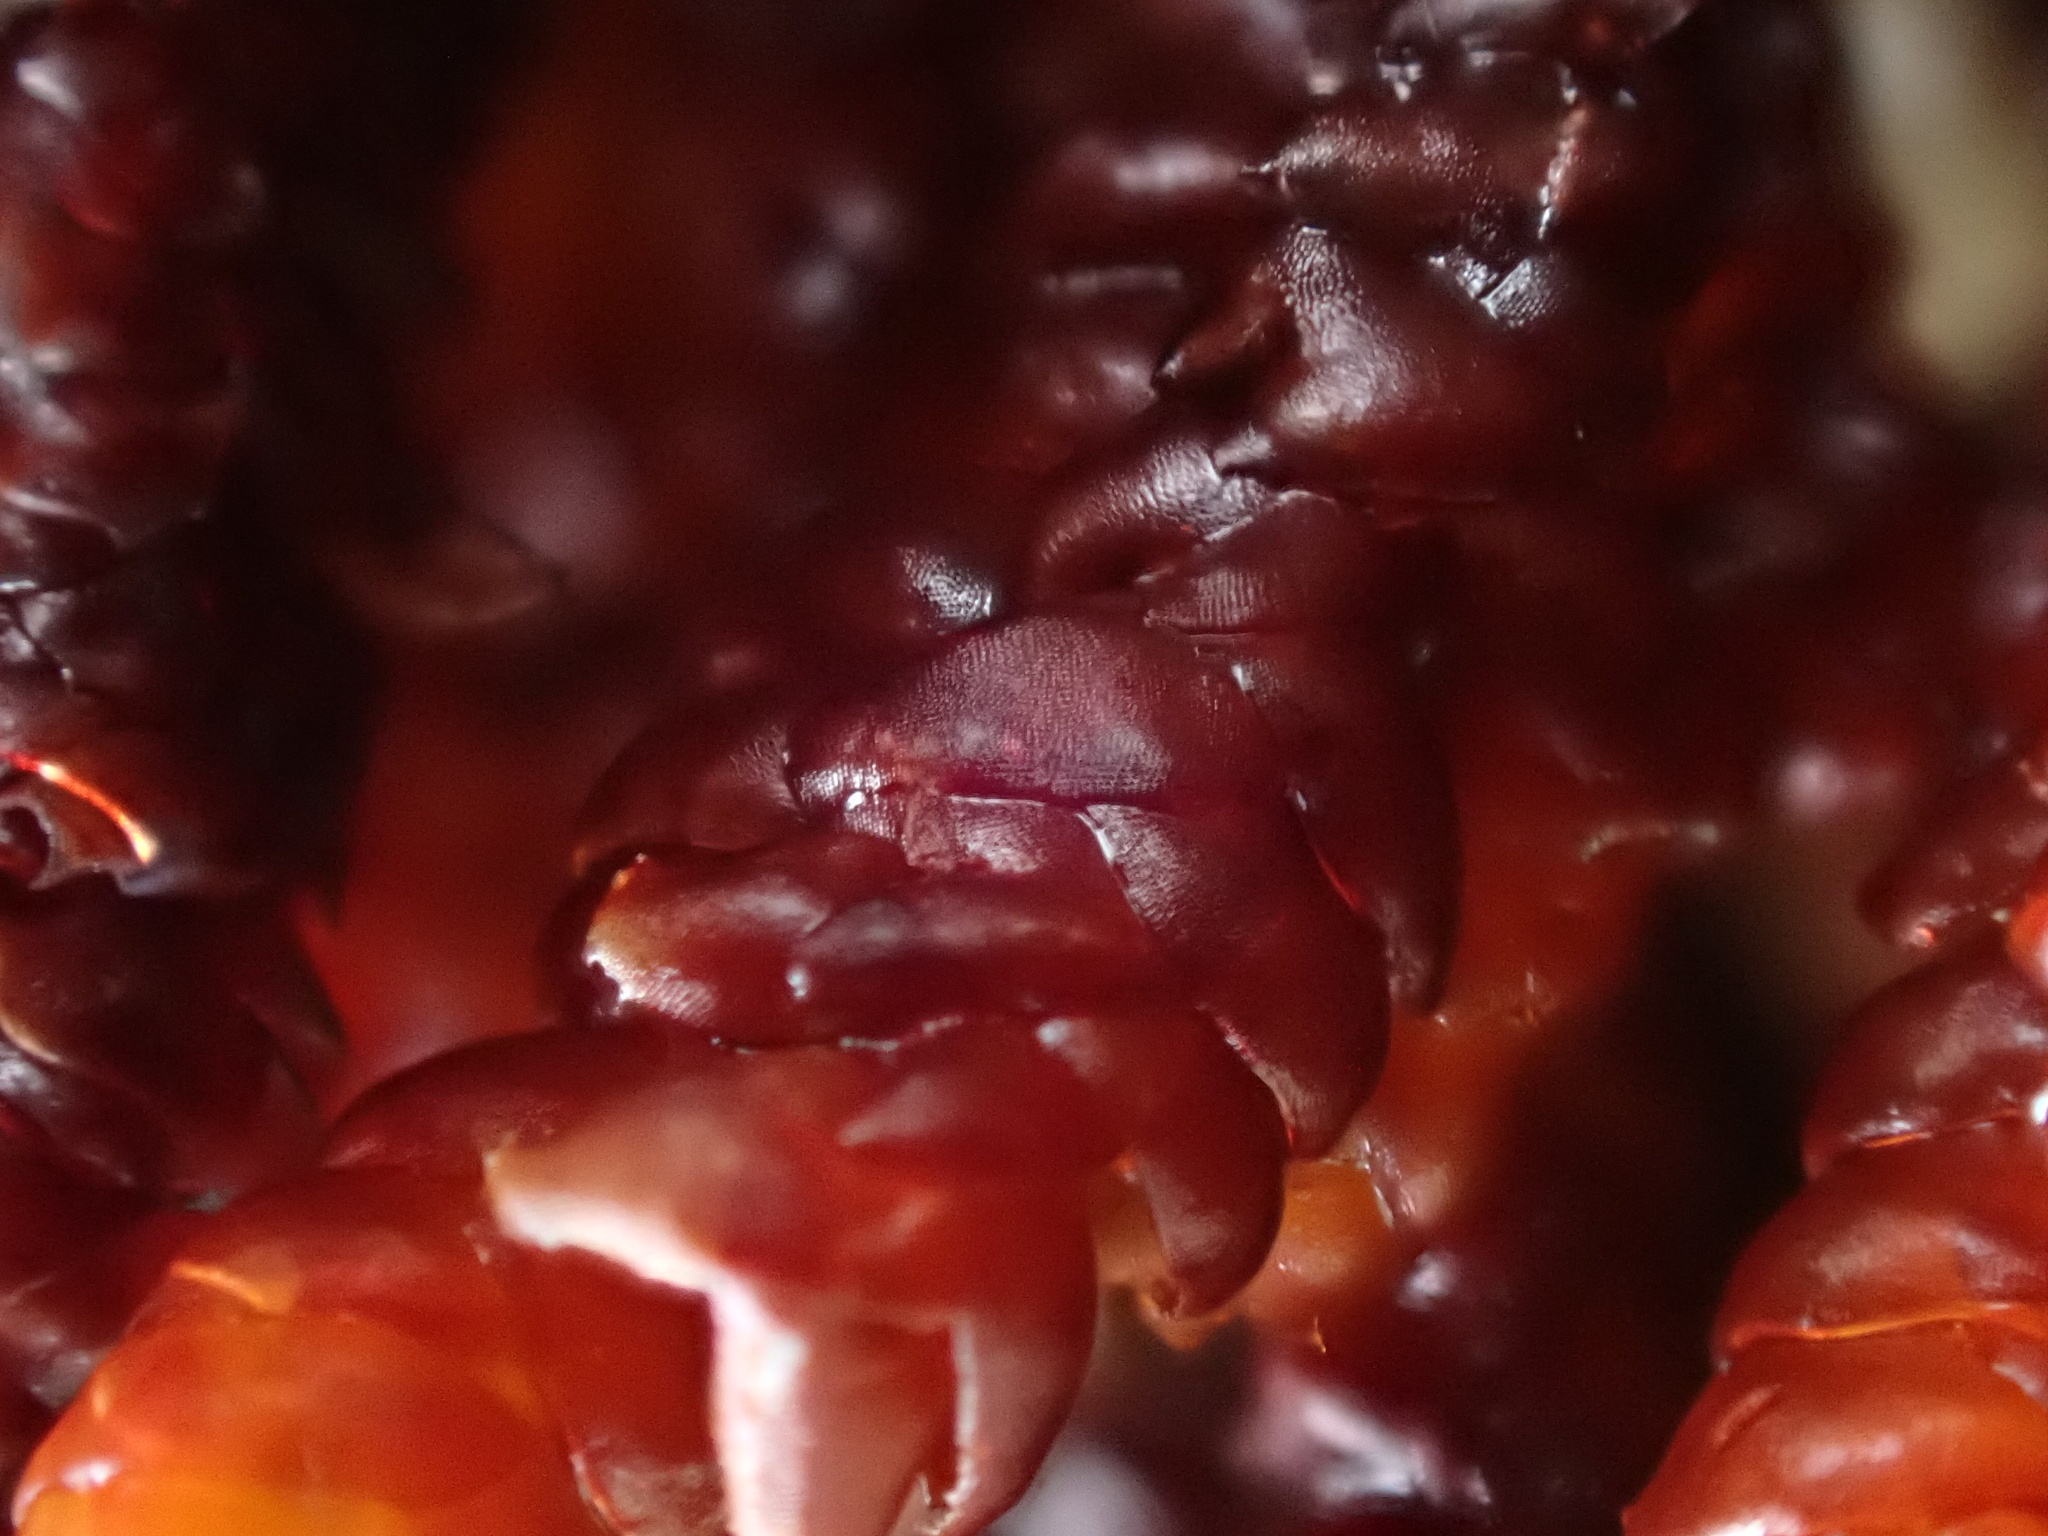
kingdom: Plantae
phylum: Marchantiophyta
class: Jungermanniopsida
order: Pleuroziales
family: Pleuroziaceae
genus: Pleurozia
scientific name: Pleurozia purpurea
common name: Purple spoonwort
